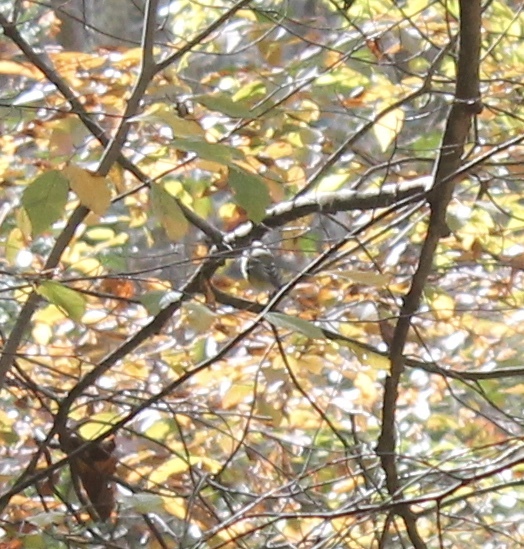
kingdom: Animalia
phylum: Chordata
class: Aves
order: Passeriformes
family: Vireonidae
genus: Vireo
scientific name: Vireo solitarius
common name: Blue-headed vireo
